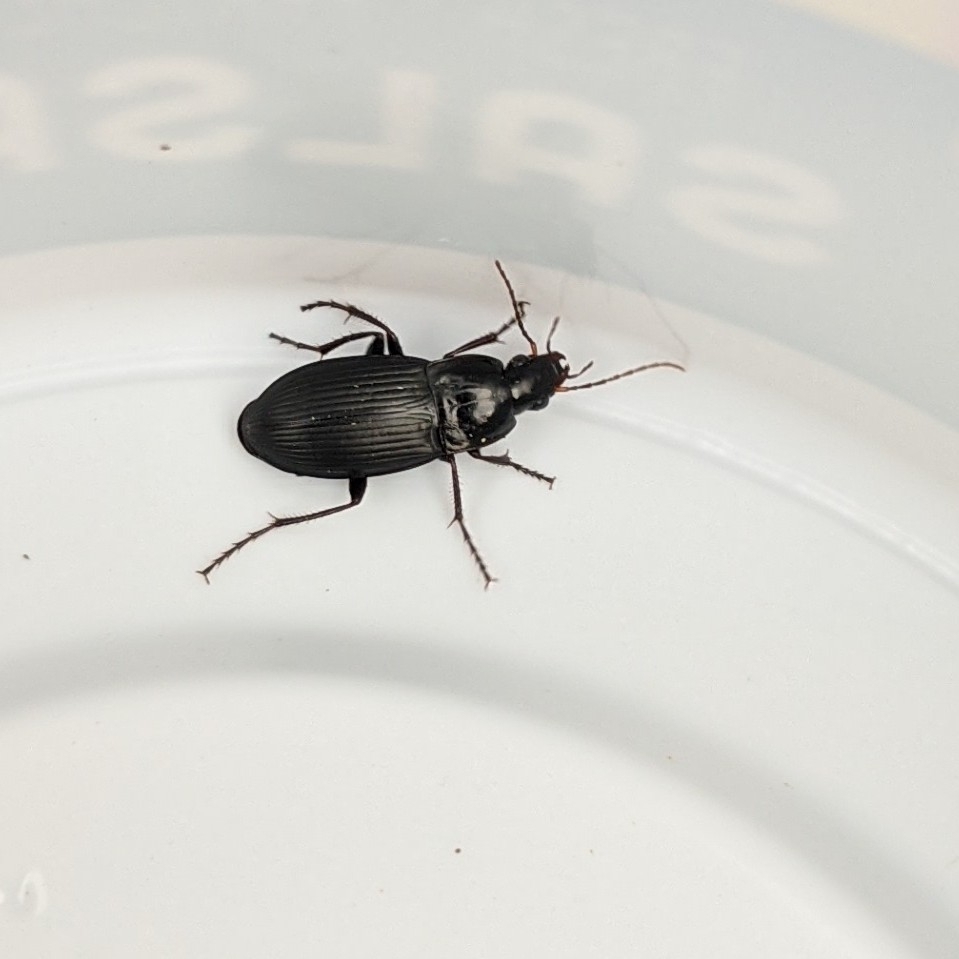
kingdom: Animalia
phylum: Arthropoda
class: Insecta
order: Coleoptera
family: Carabidae
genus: Calathus
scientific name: Calathus fuscipes
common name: Dark-footed harp ground beetle
